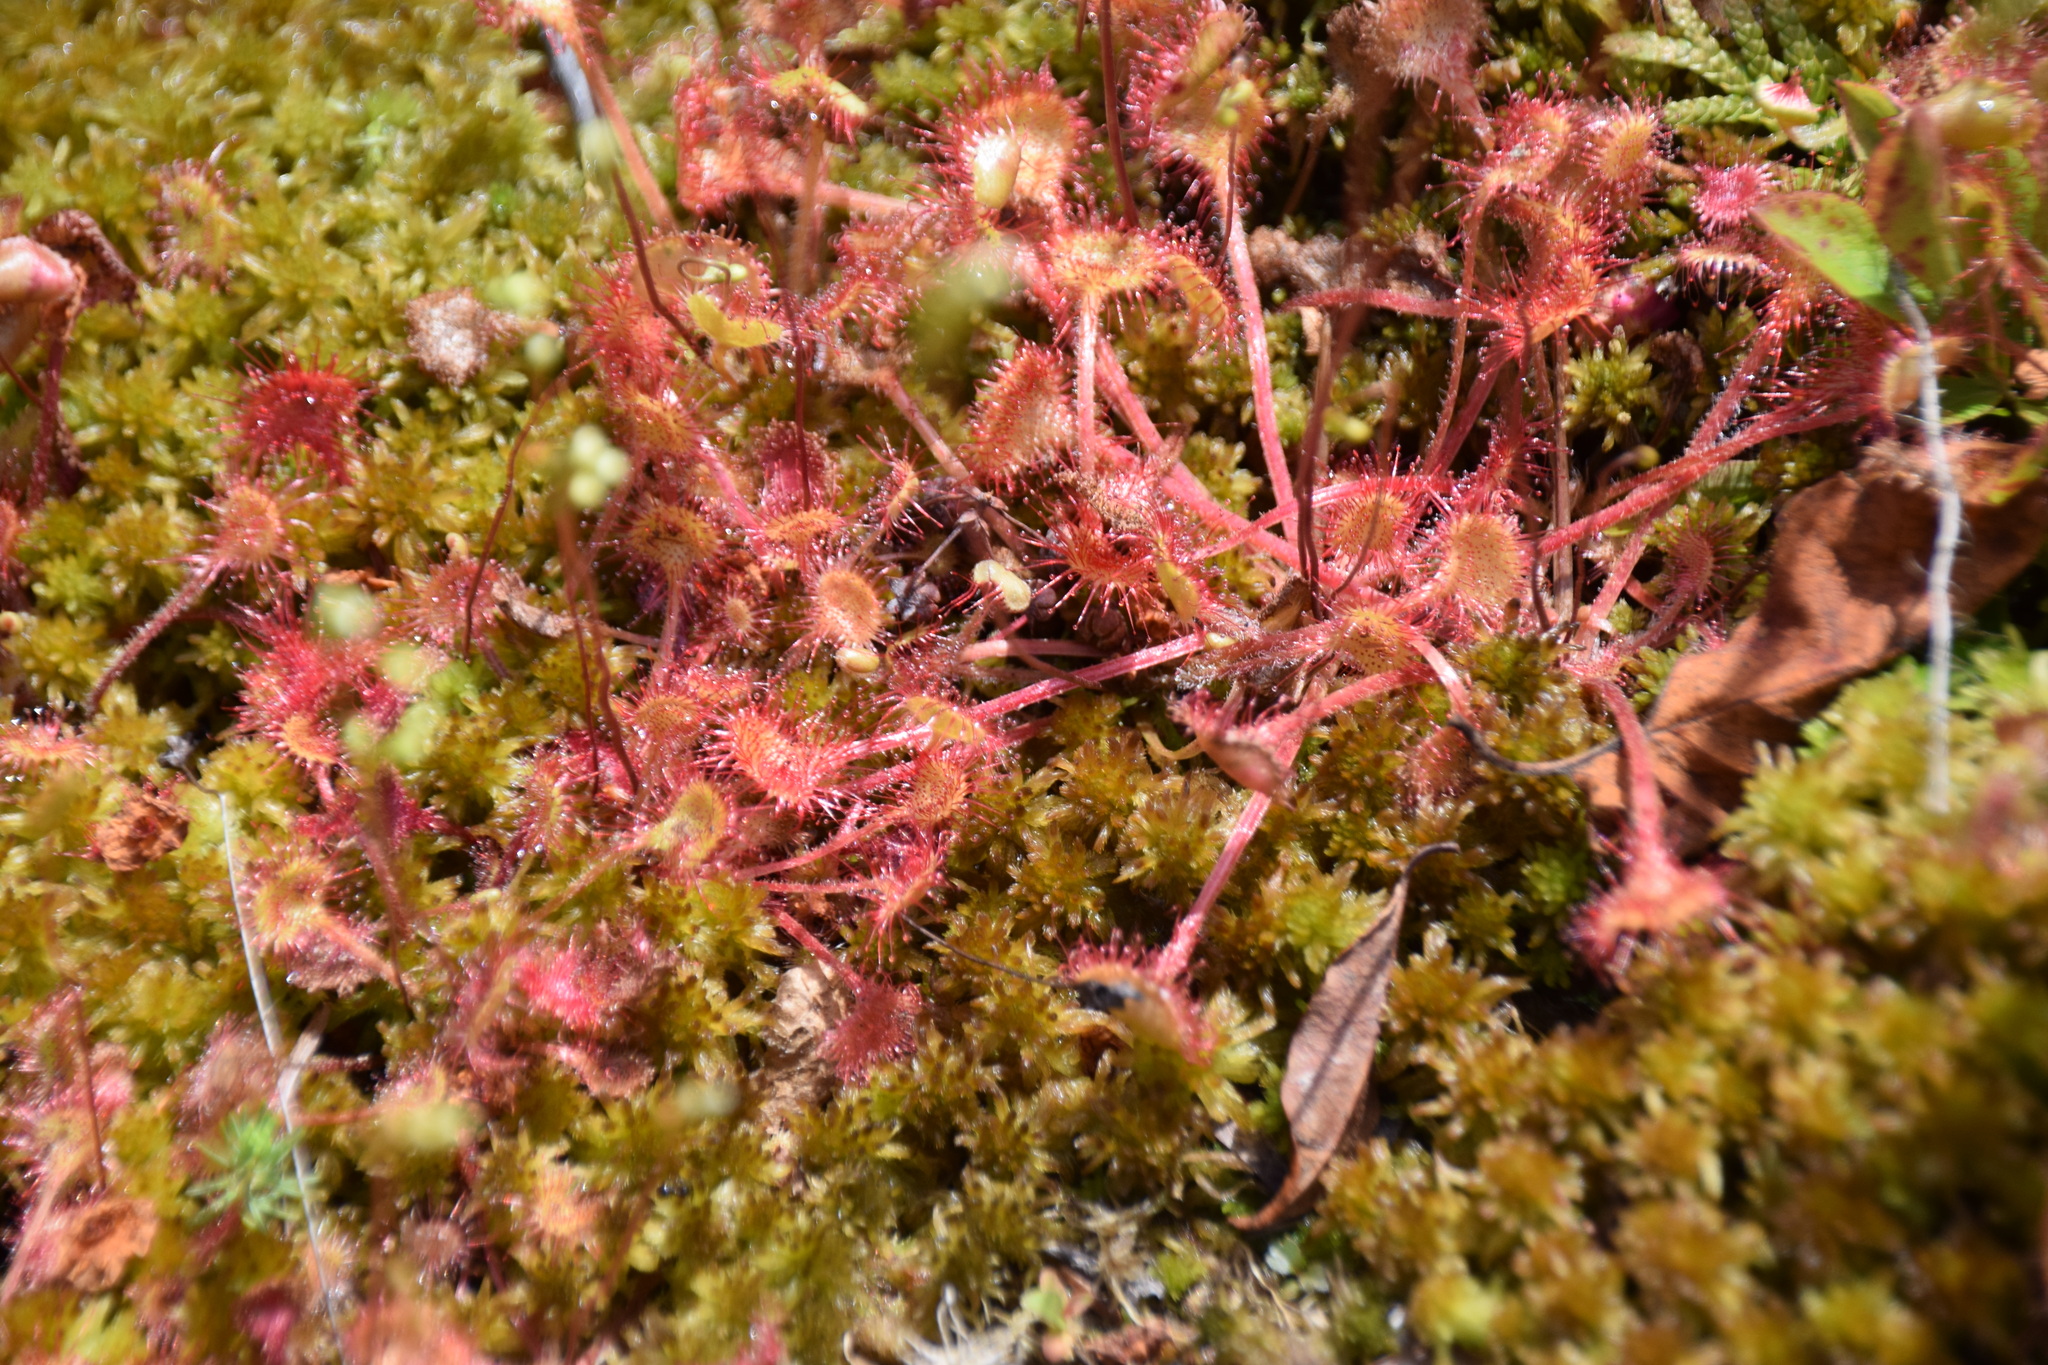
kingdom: Plantae
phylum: Tracheophyta
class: Magnoliopsida
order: Caryophyllales
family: Droseraceae
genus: Drosera
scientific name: Drosera rotundifolia
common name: Round-leaved sundew
